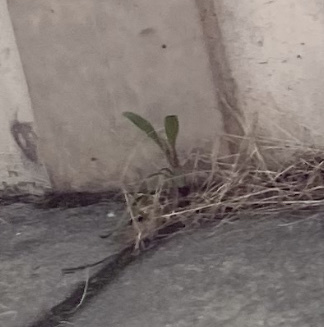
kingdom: Plantae
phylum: Tracheophyta
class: Magnoliopsida
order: Asterales
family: Asteraceae
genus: Solidago
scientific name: Solidago sempervirens
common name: Salt-marsh goldenrod
